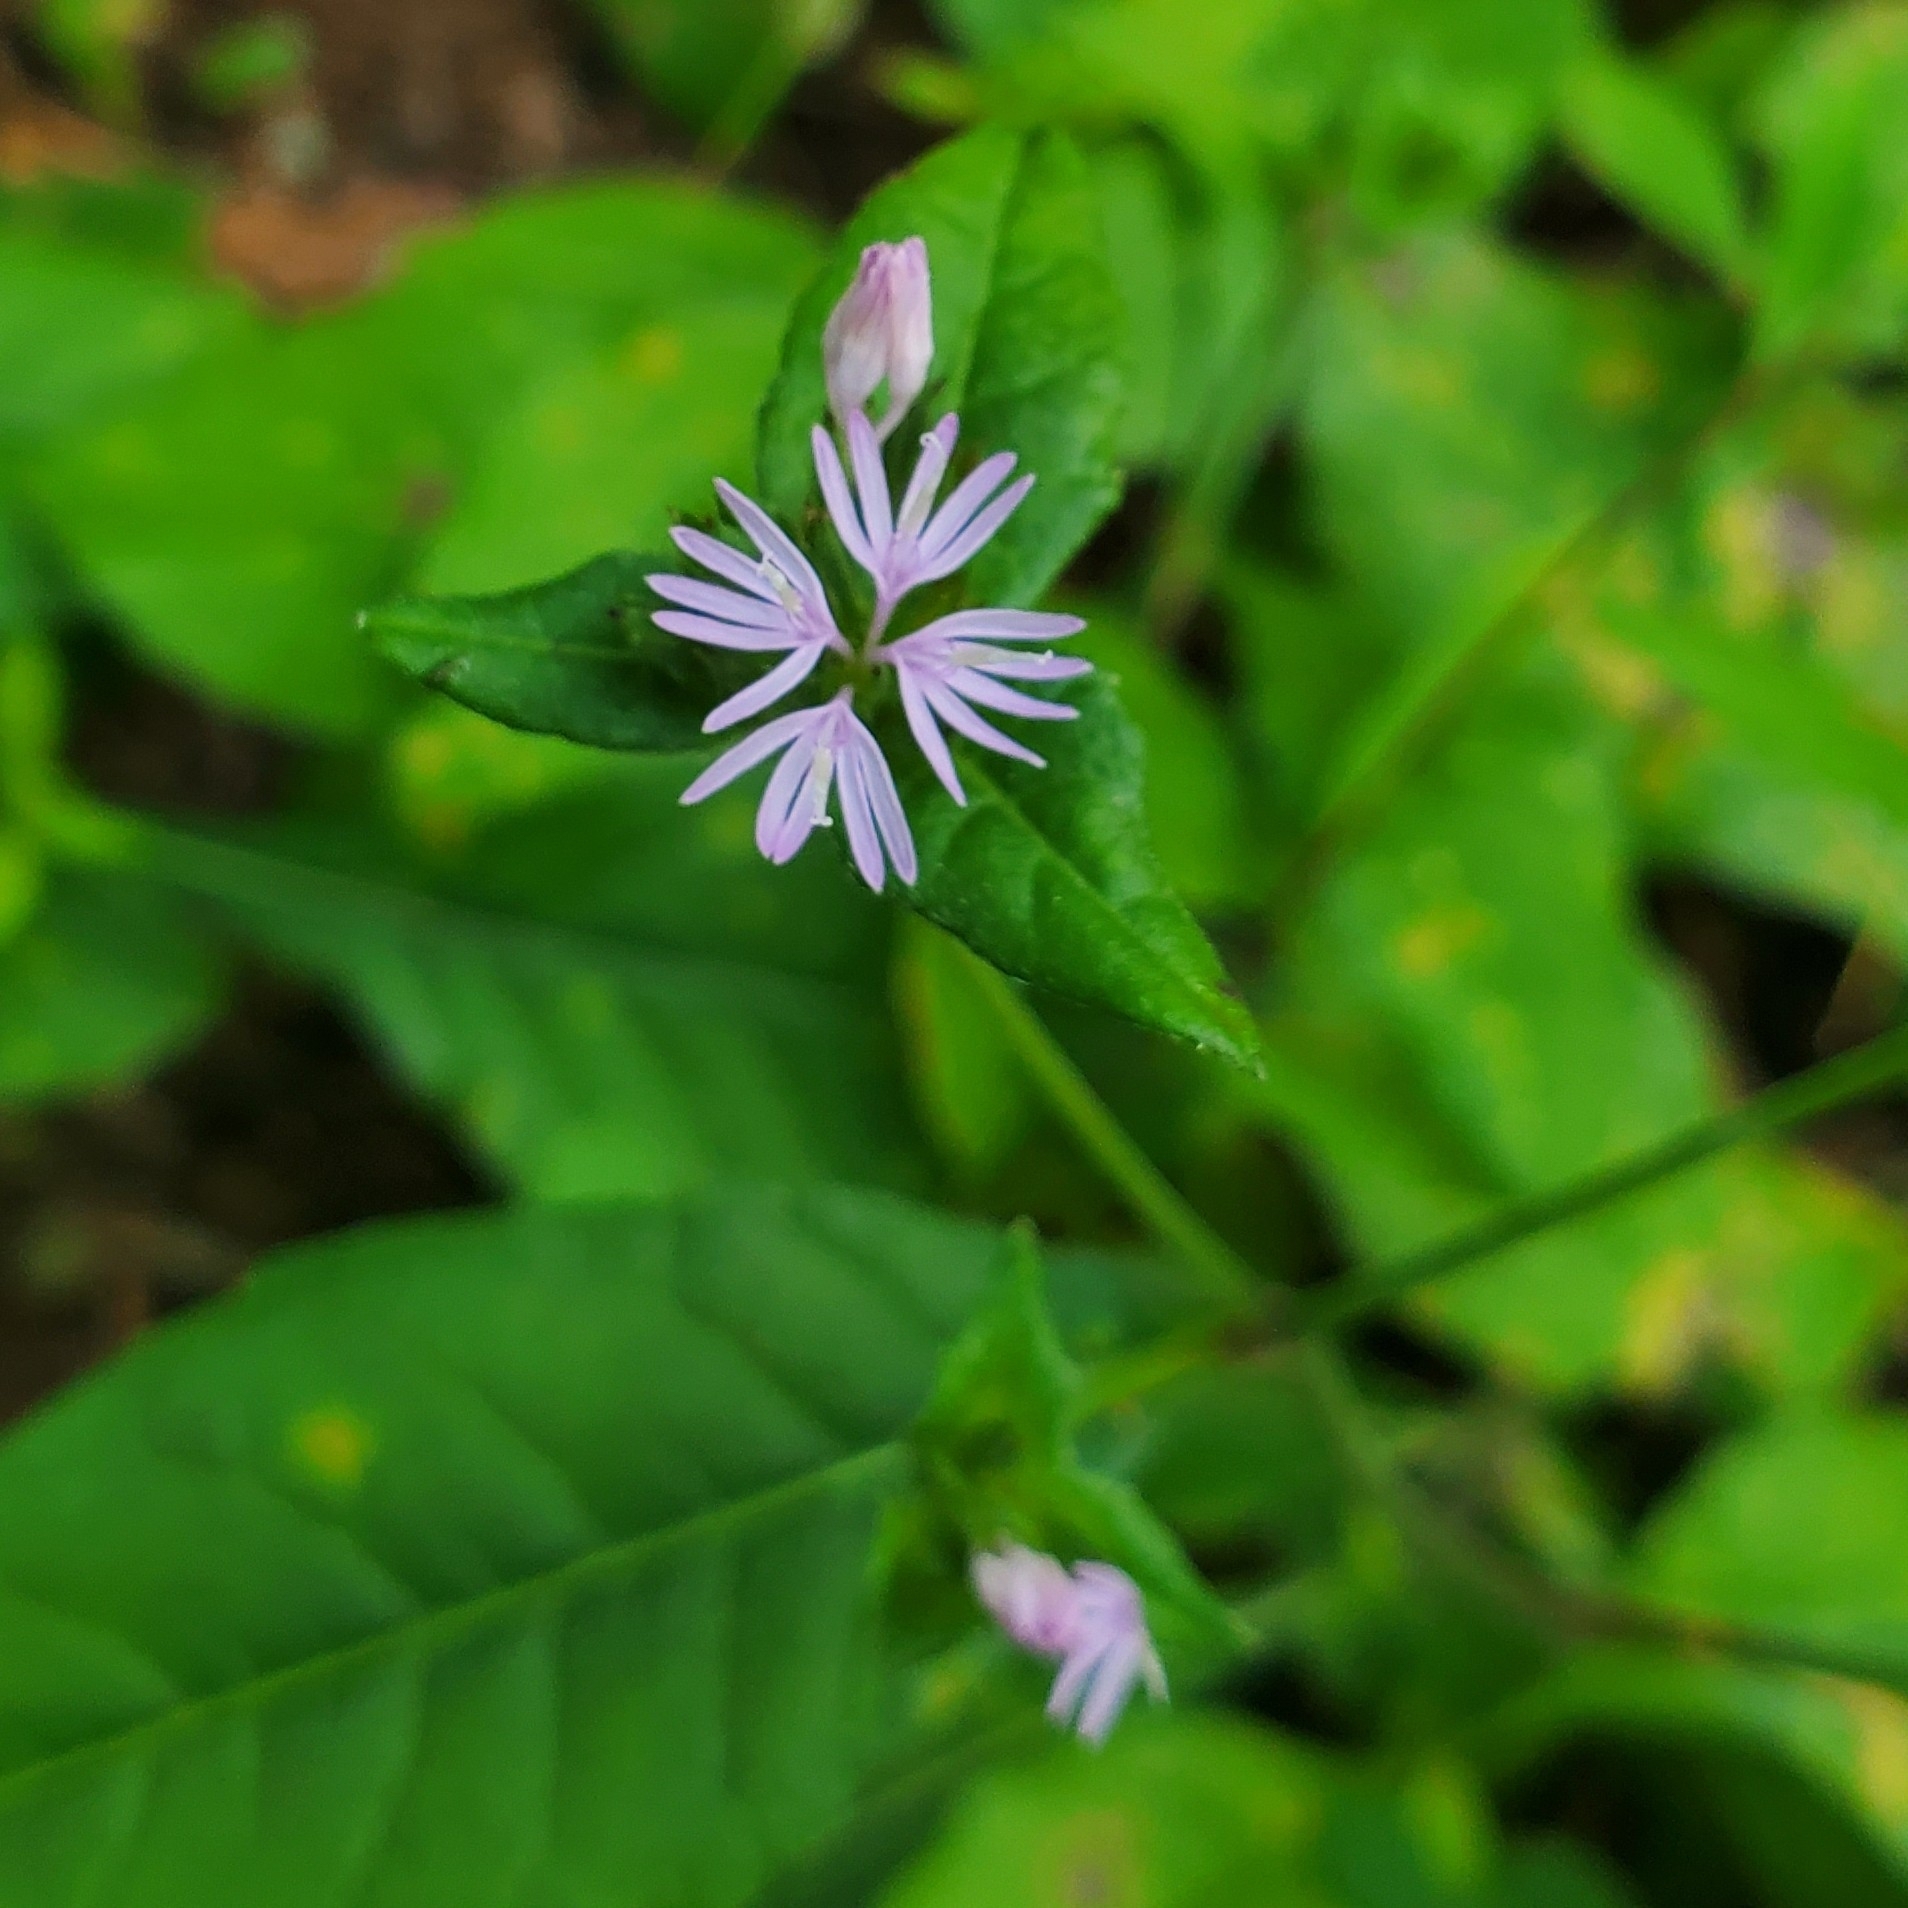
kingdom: Plantae
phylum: Tracheophyta
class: Magnoliopsida
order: Asterales
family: Asteraceae
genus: Elephantopus
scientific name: Elephantopus carolinianus
